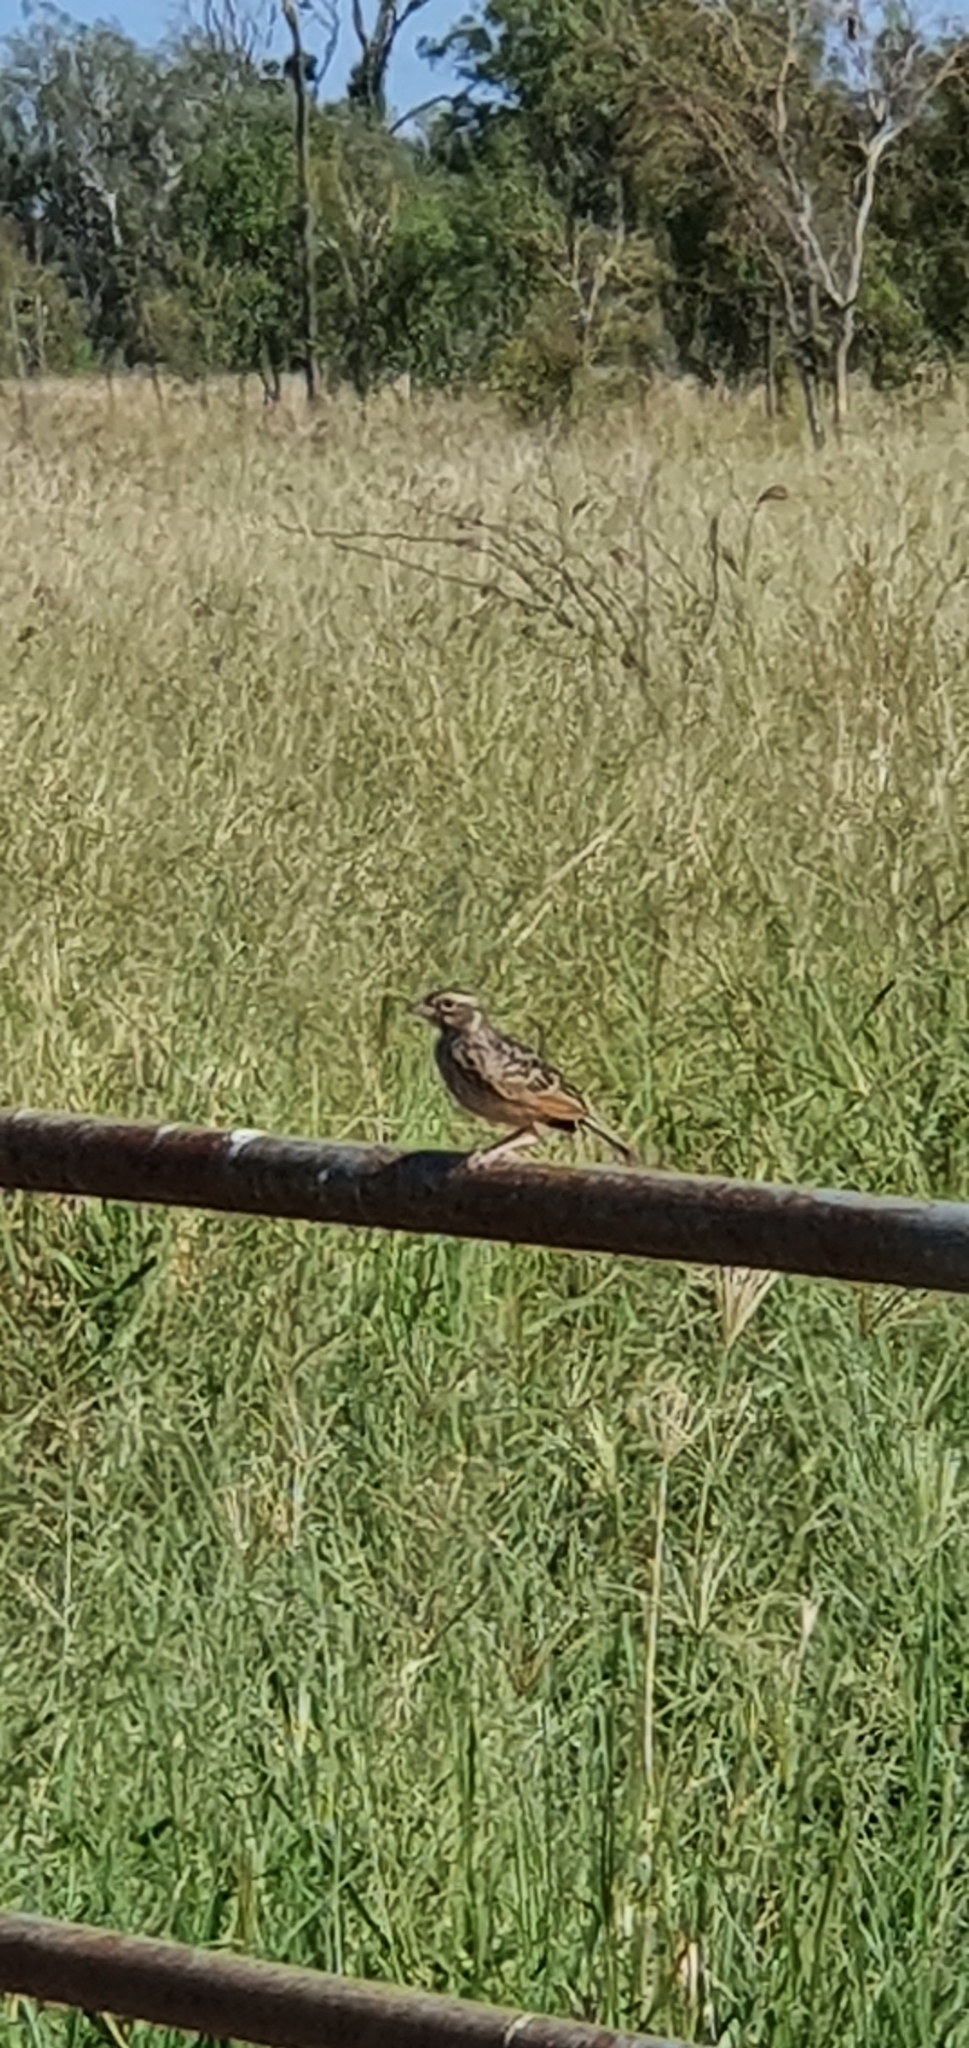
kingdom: Animalia
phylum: Chordata
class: Aves
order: Passeriformes
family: Alaudidae
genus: Mirafra
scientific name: Mirafra javanica
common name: Horsfield's bush lark
